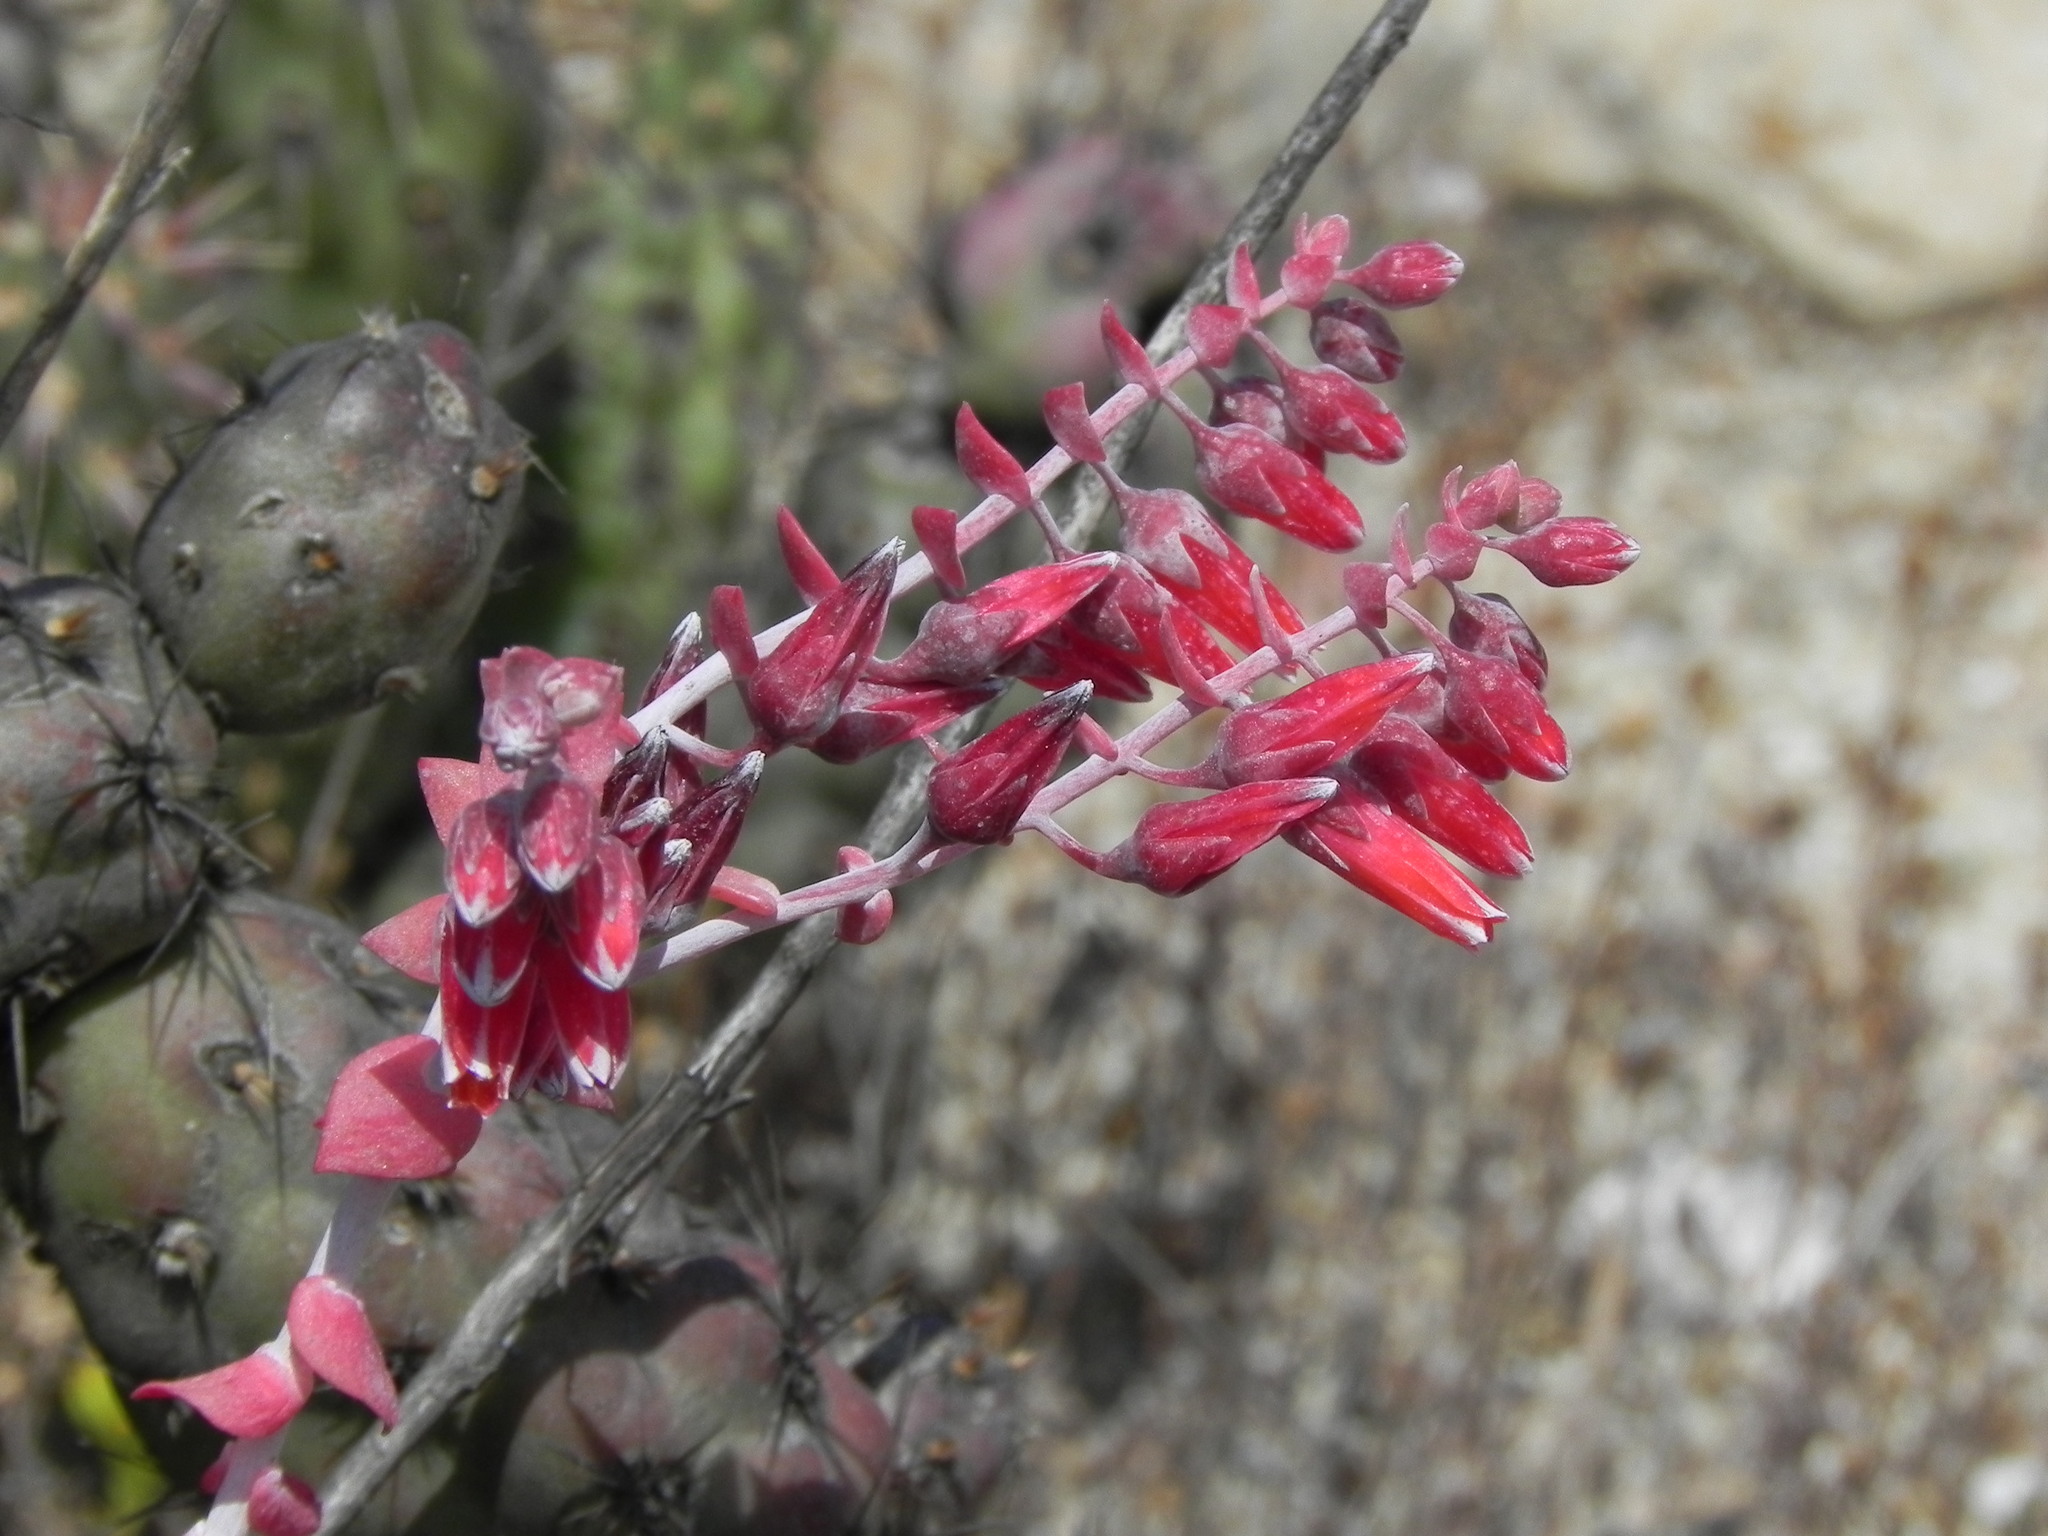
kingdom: Plantae
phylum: Tracheophyta
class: Magnoliopsida
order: Saxifragales
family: Crassulaceae
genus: Dudleya
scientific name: Dudleya pulverulenta
